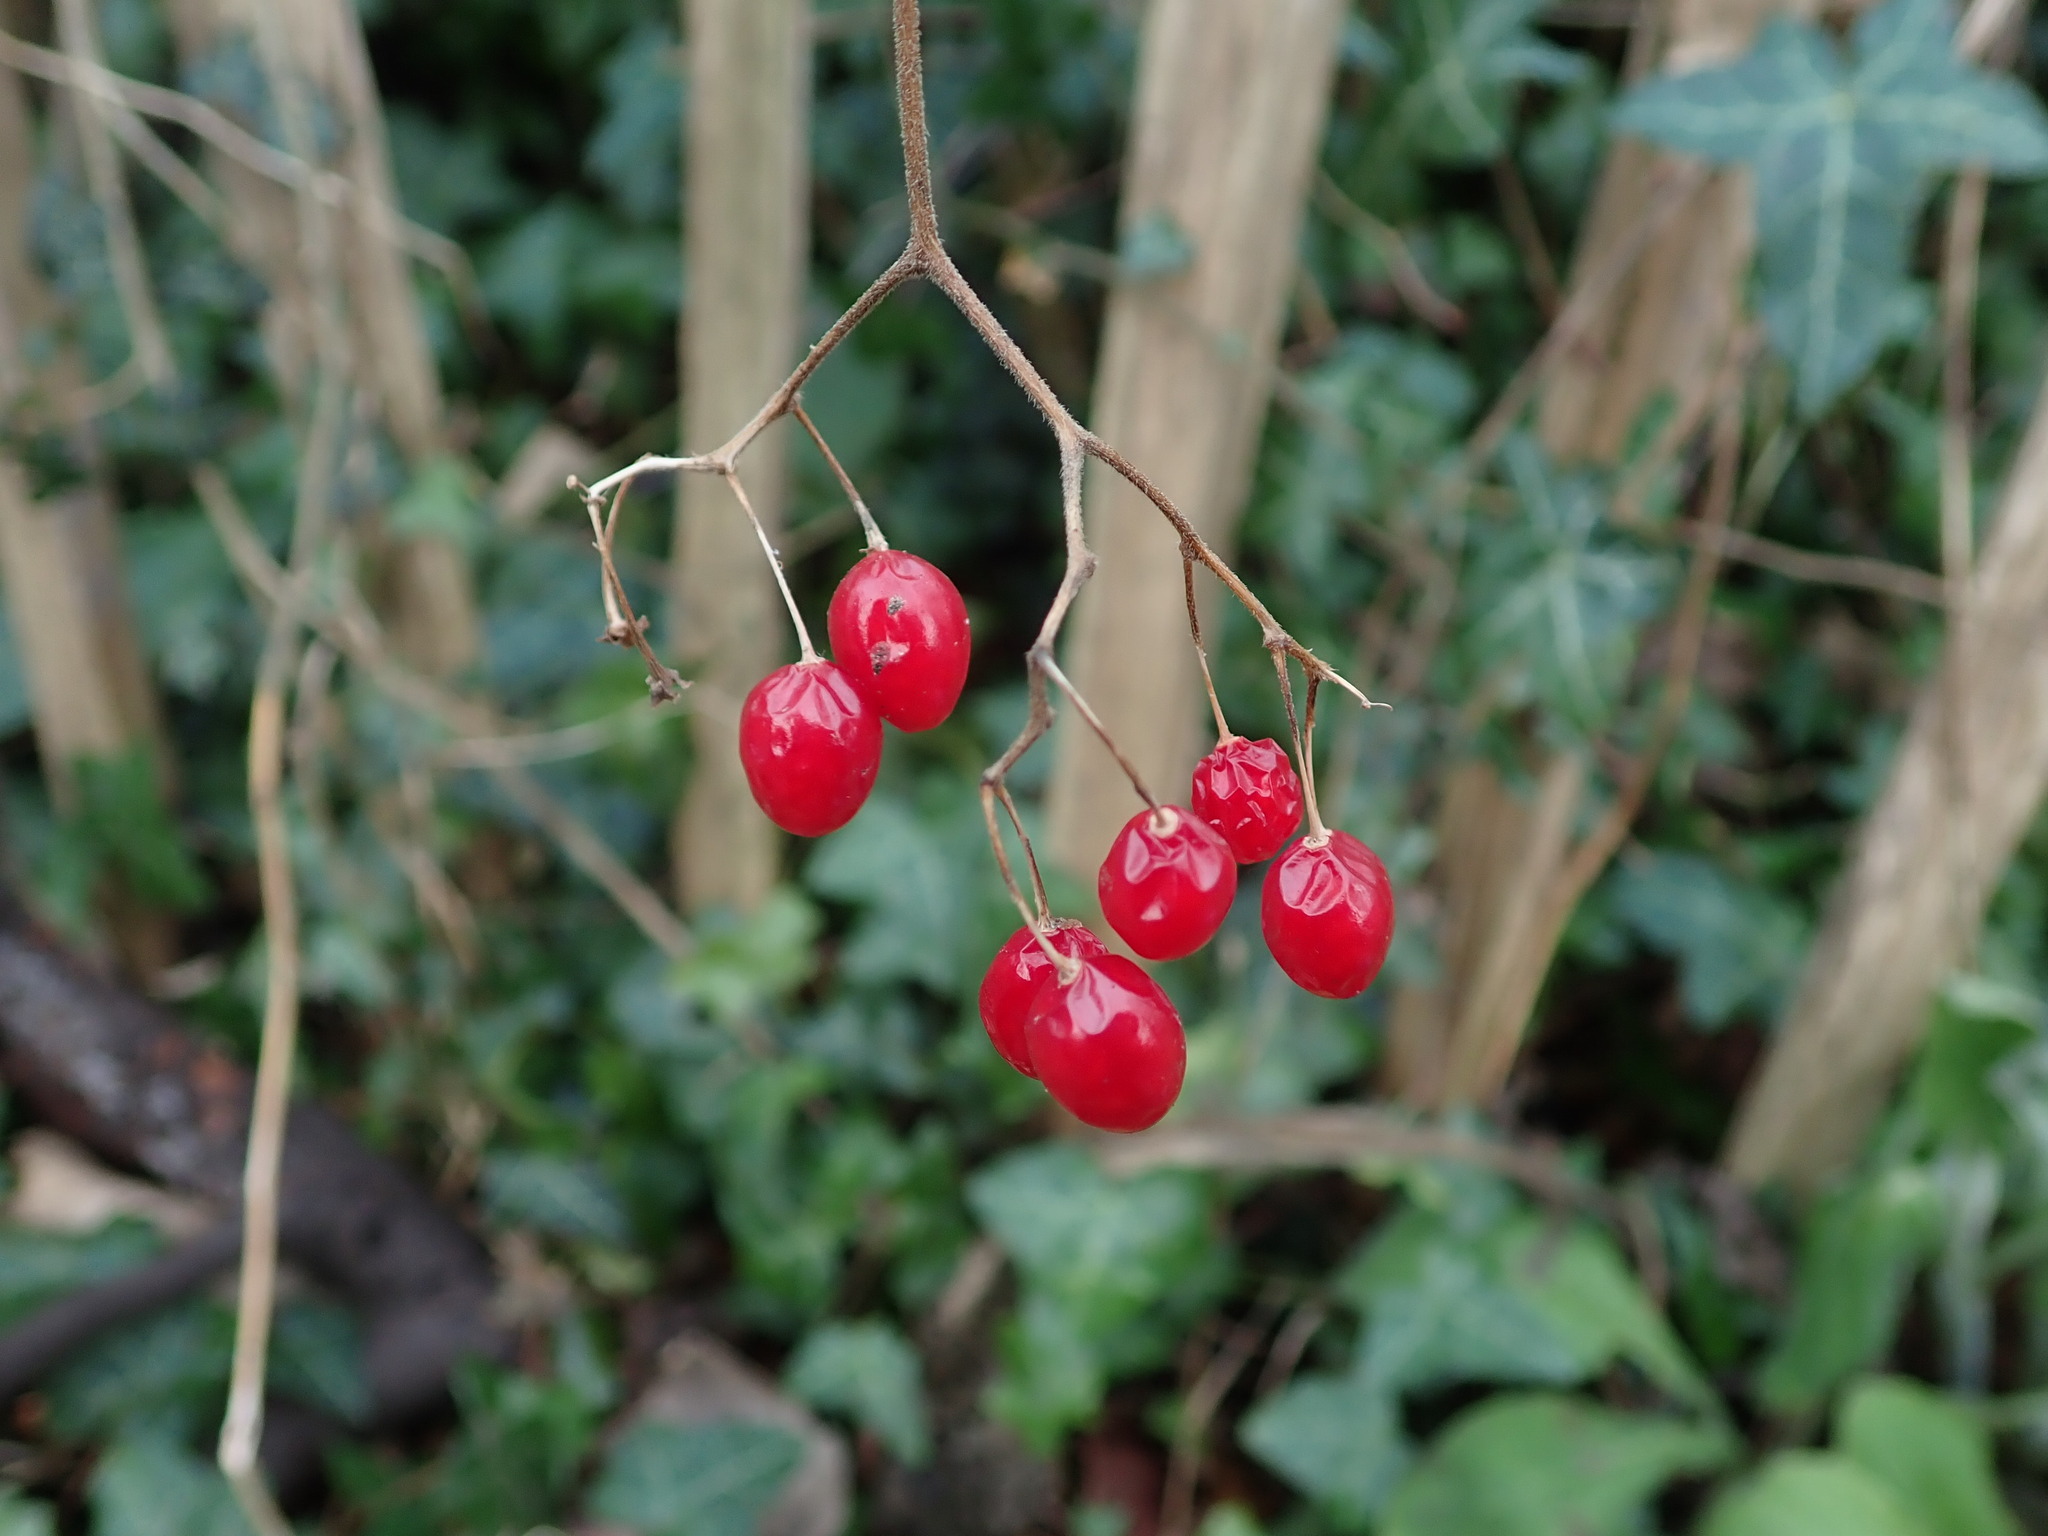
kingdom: Plantae
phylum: Tracheophyta
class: Magnoliopsida
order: Solanales
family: Solanaceae
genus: Solanum
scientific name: Solanum dulcamara
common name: Climbing nightshade
